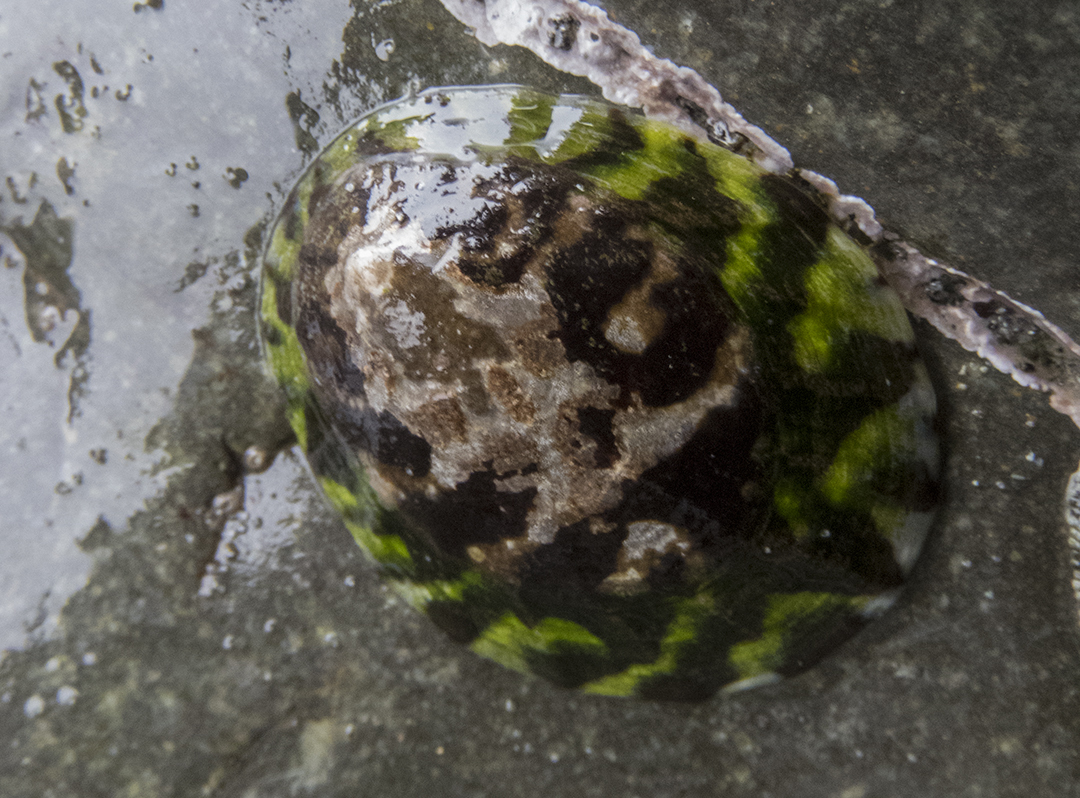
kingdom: Animalia
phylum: Mollusca
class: Gastropoda
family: Nacellidae
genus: Cellana
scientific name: Cellana radians
